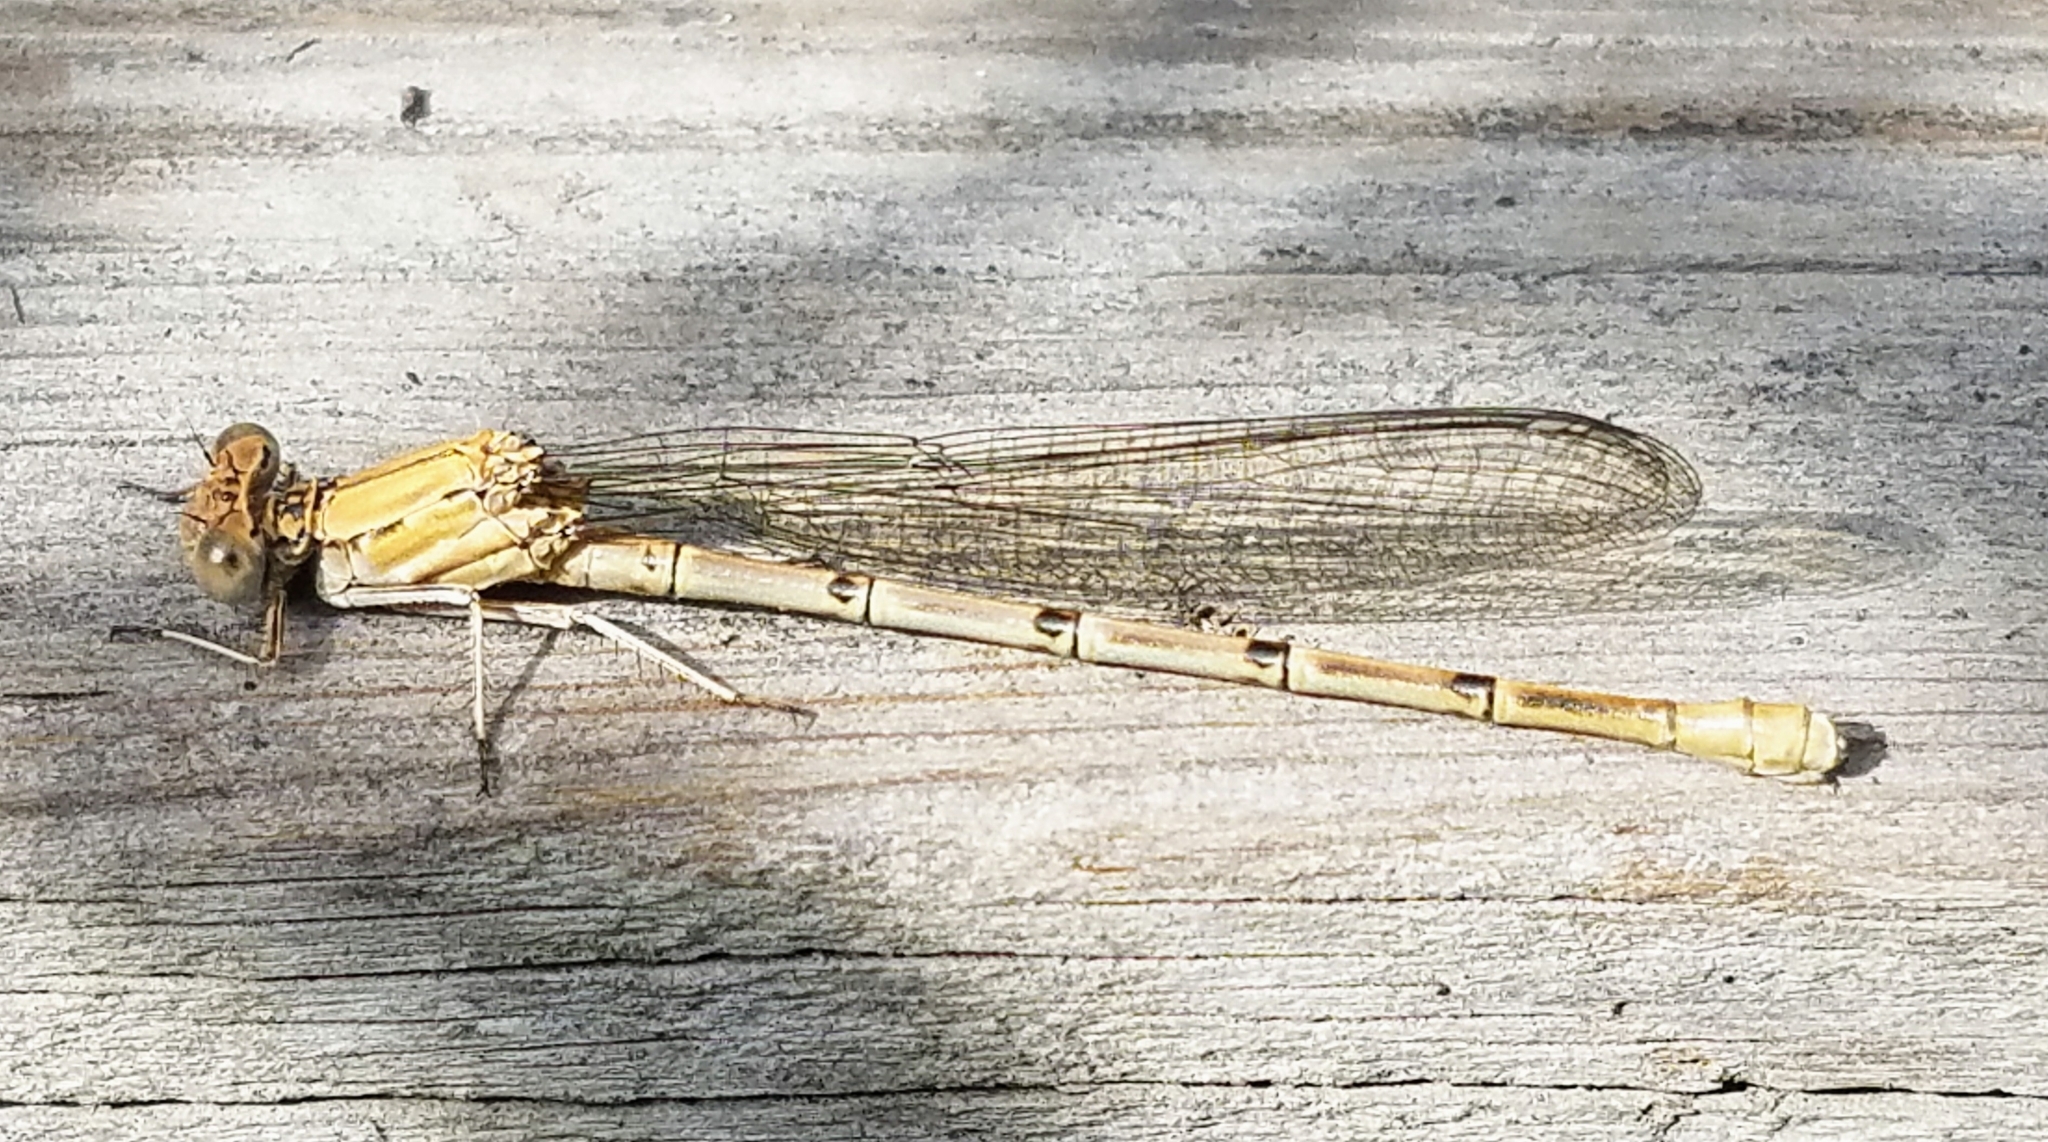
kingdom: Animalia
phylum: Arthropoda
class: Insecta
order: Odonata
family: Coenagrionidae
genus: Argia
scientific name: Argia emma
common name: Emma's dancer
